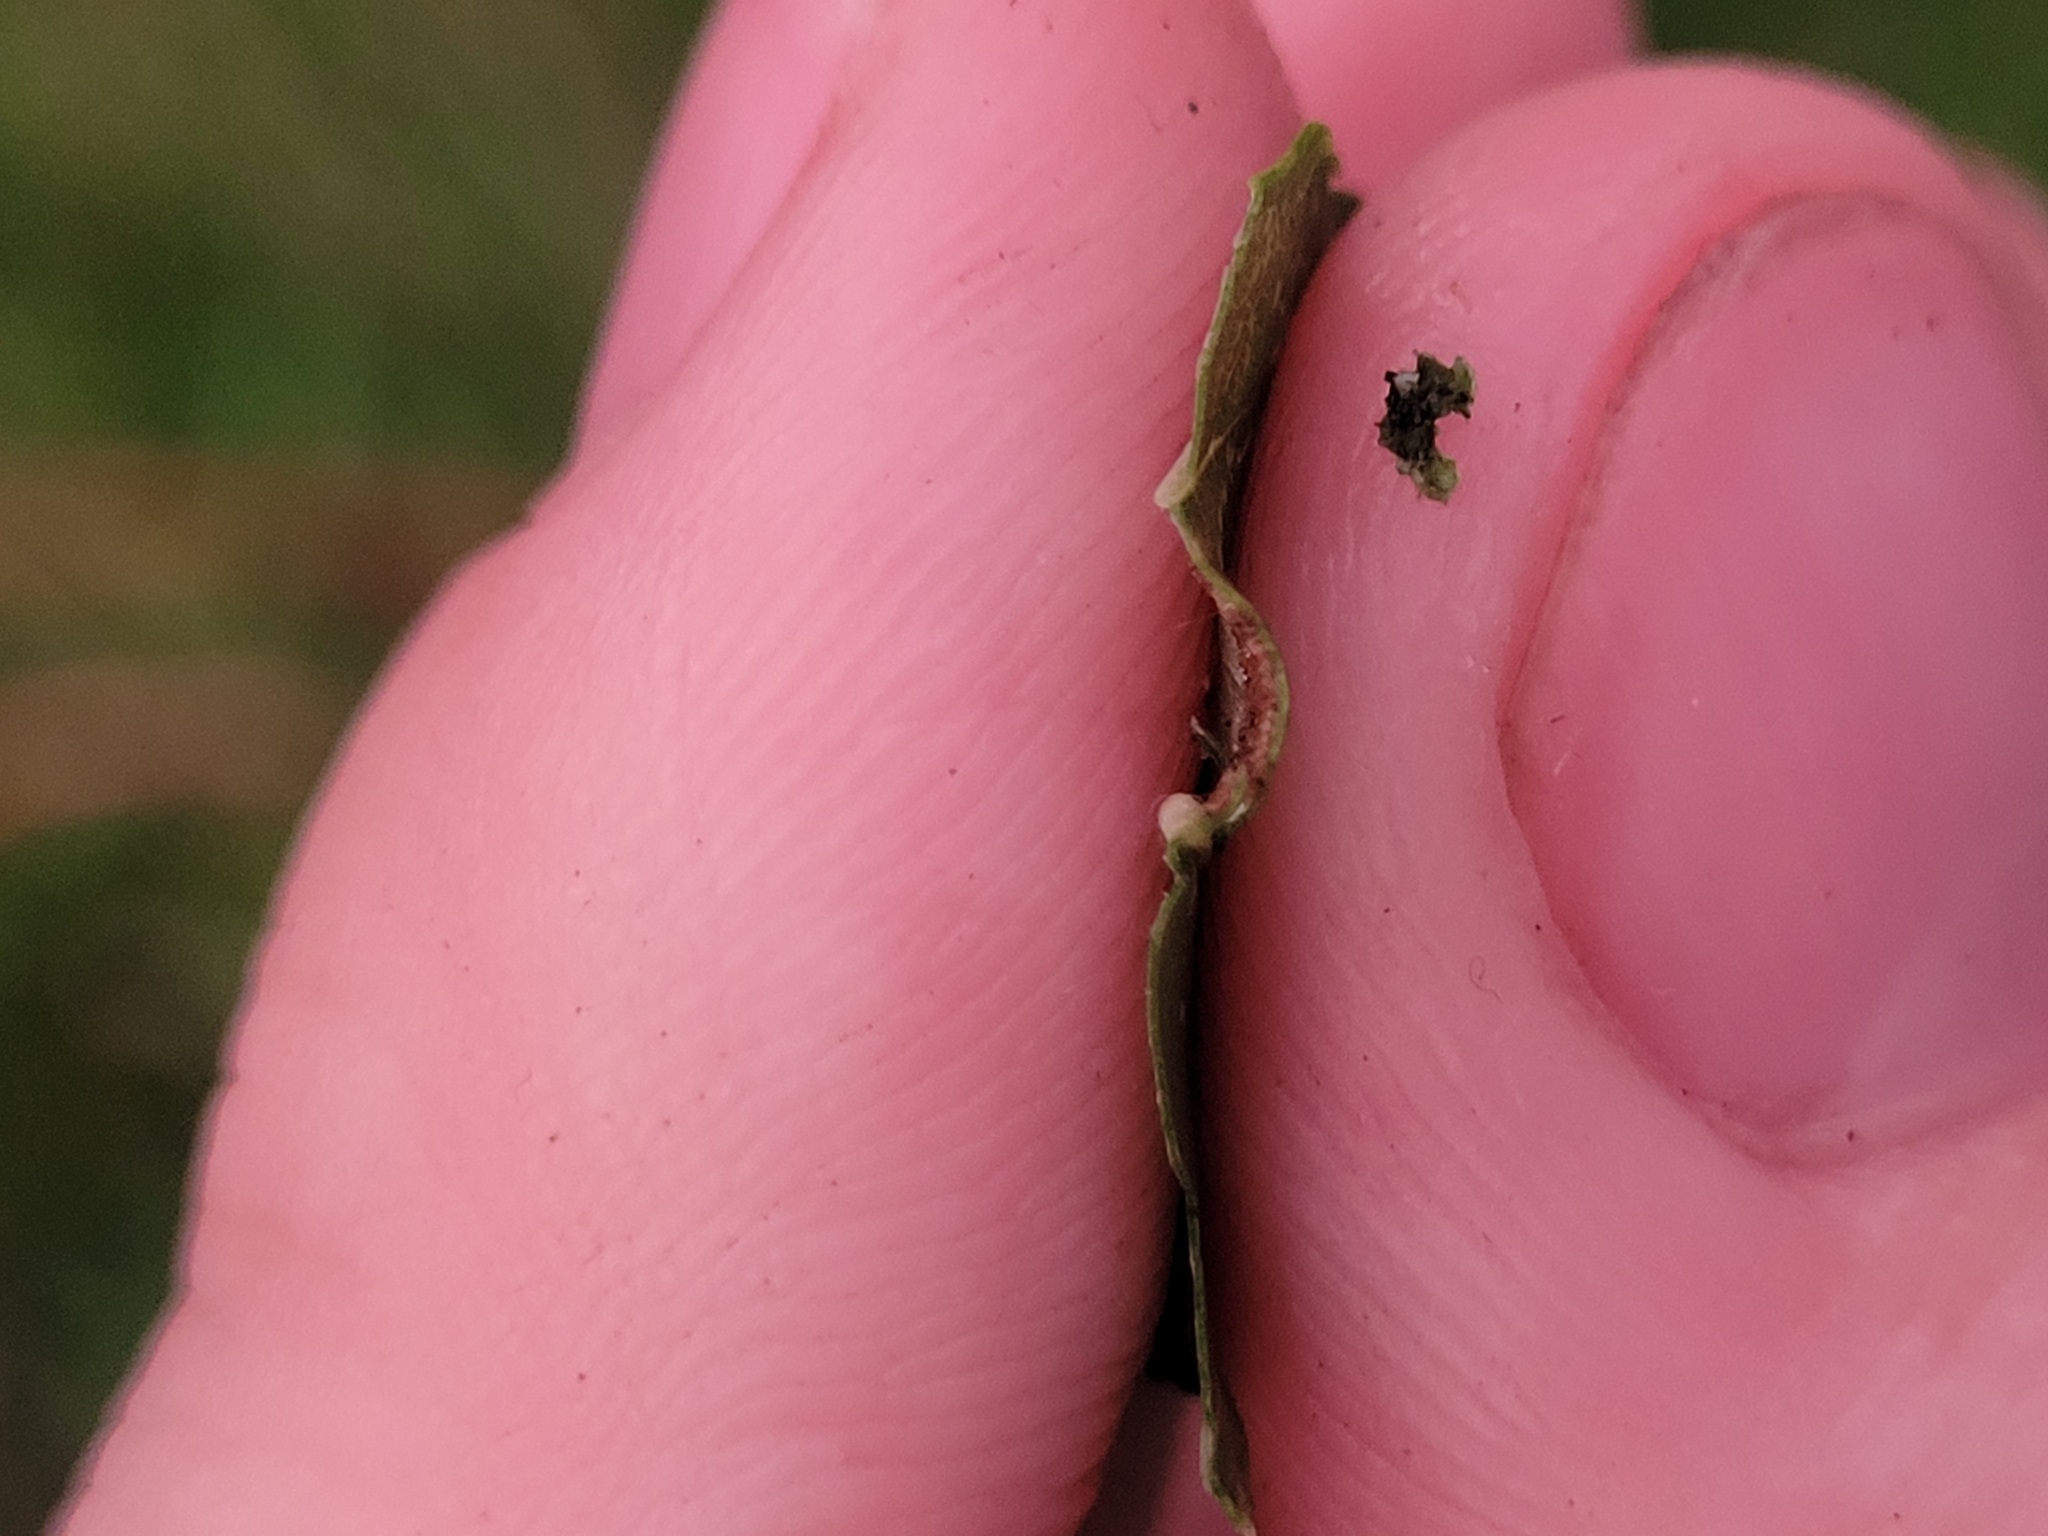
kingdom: Animalia
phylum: Arthropoda
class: Arachnida
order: Trombidiformes
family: Eriophyidae
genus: Eriophyes
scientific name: Eriophyes
